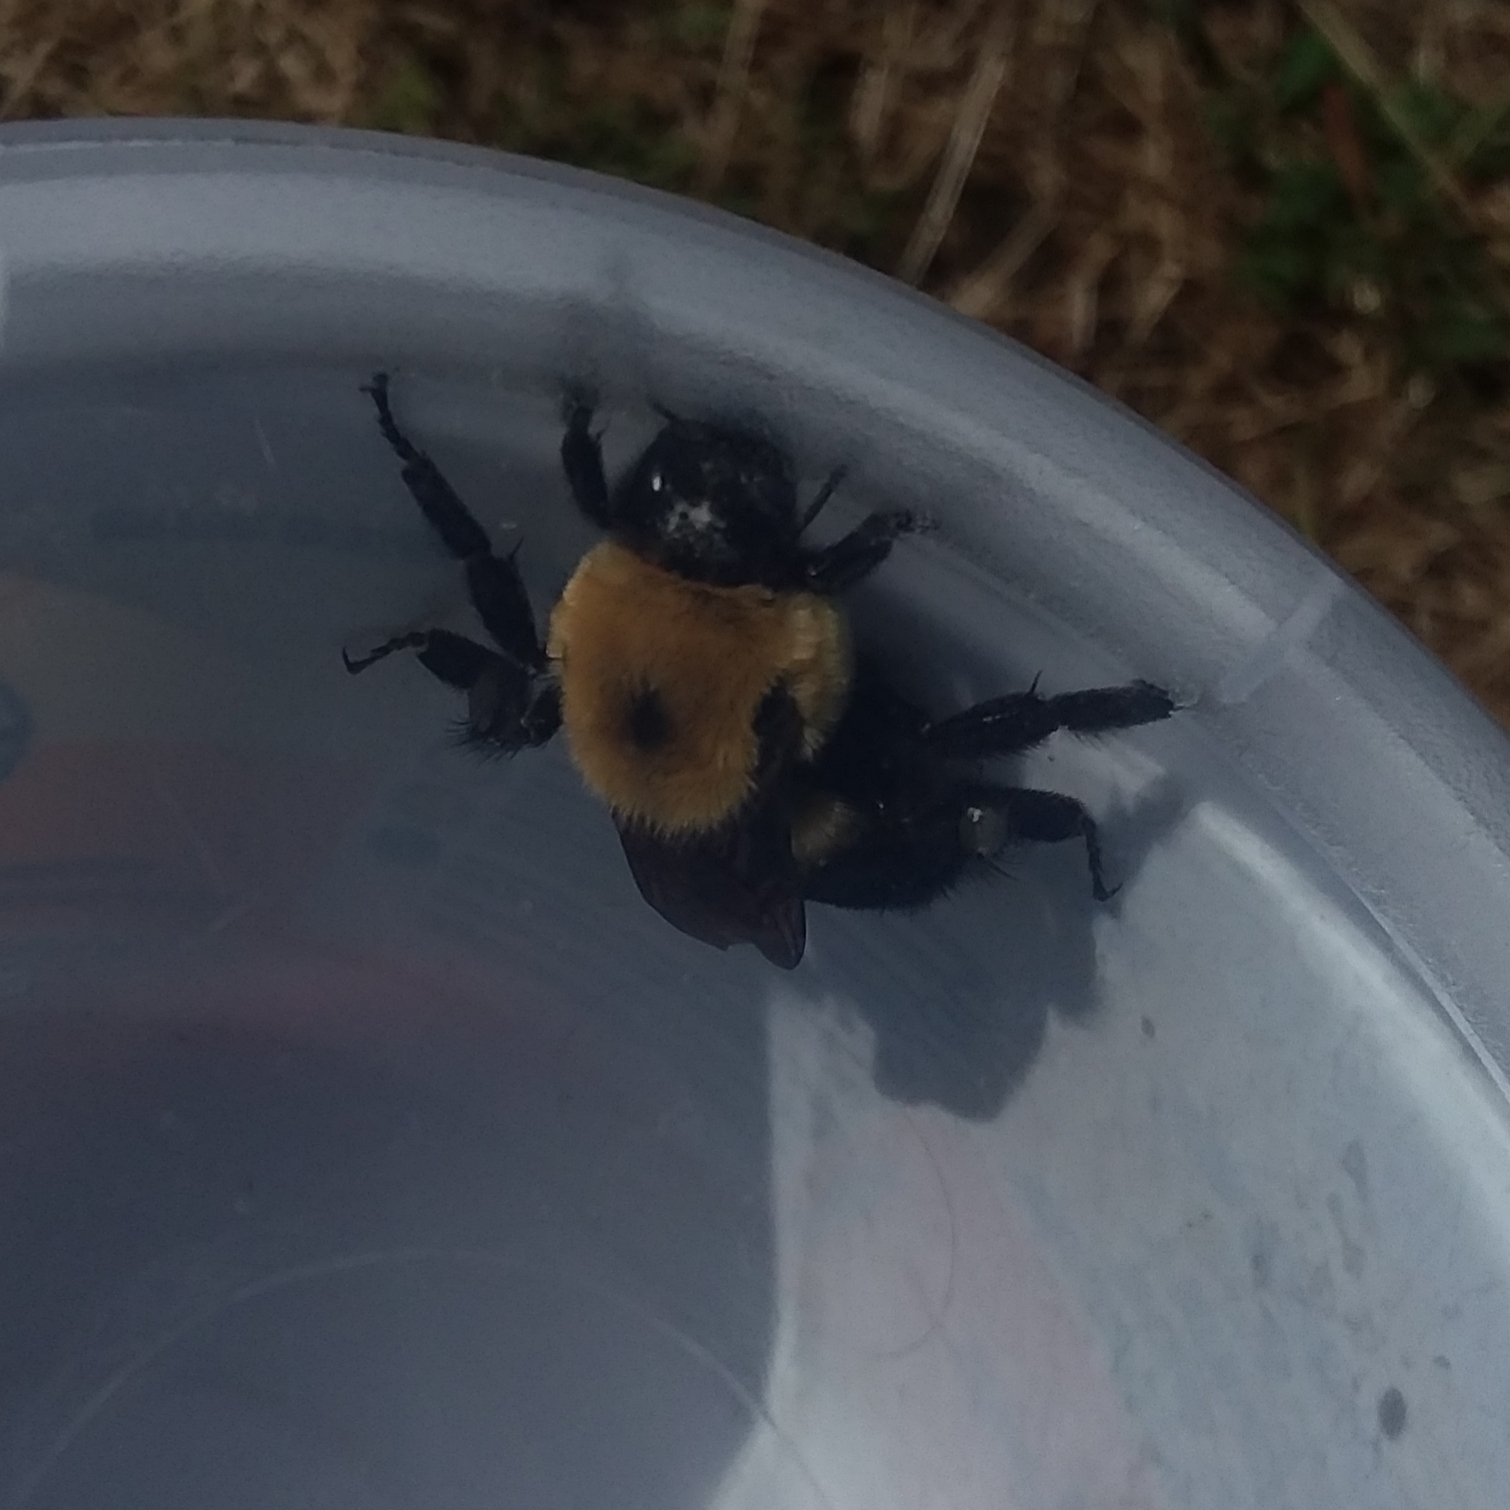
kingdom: Animalia
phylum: Arthropoda
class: Insecta
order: Hymenoptera
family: Apidae
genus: Bombus
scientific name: Bombus griseocollis
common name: Brown-belted bumble bee
